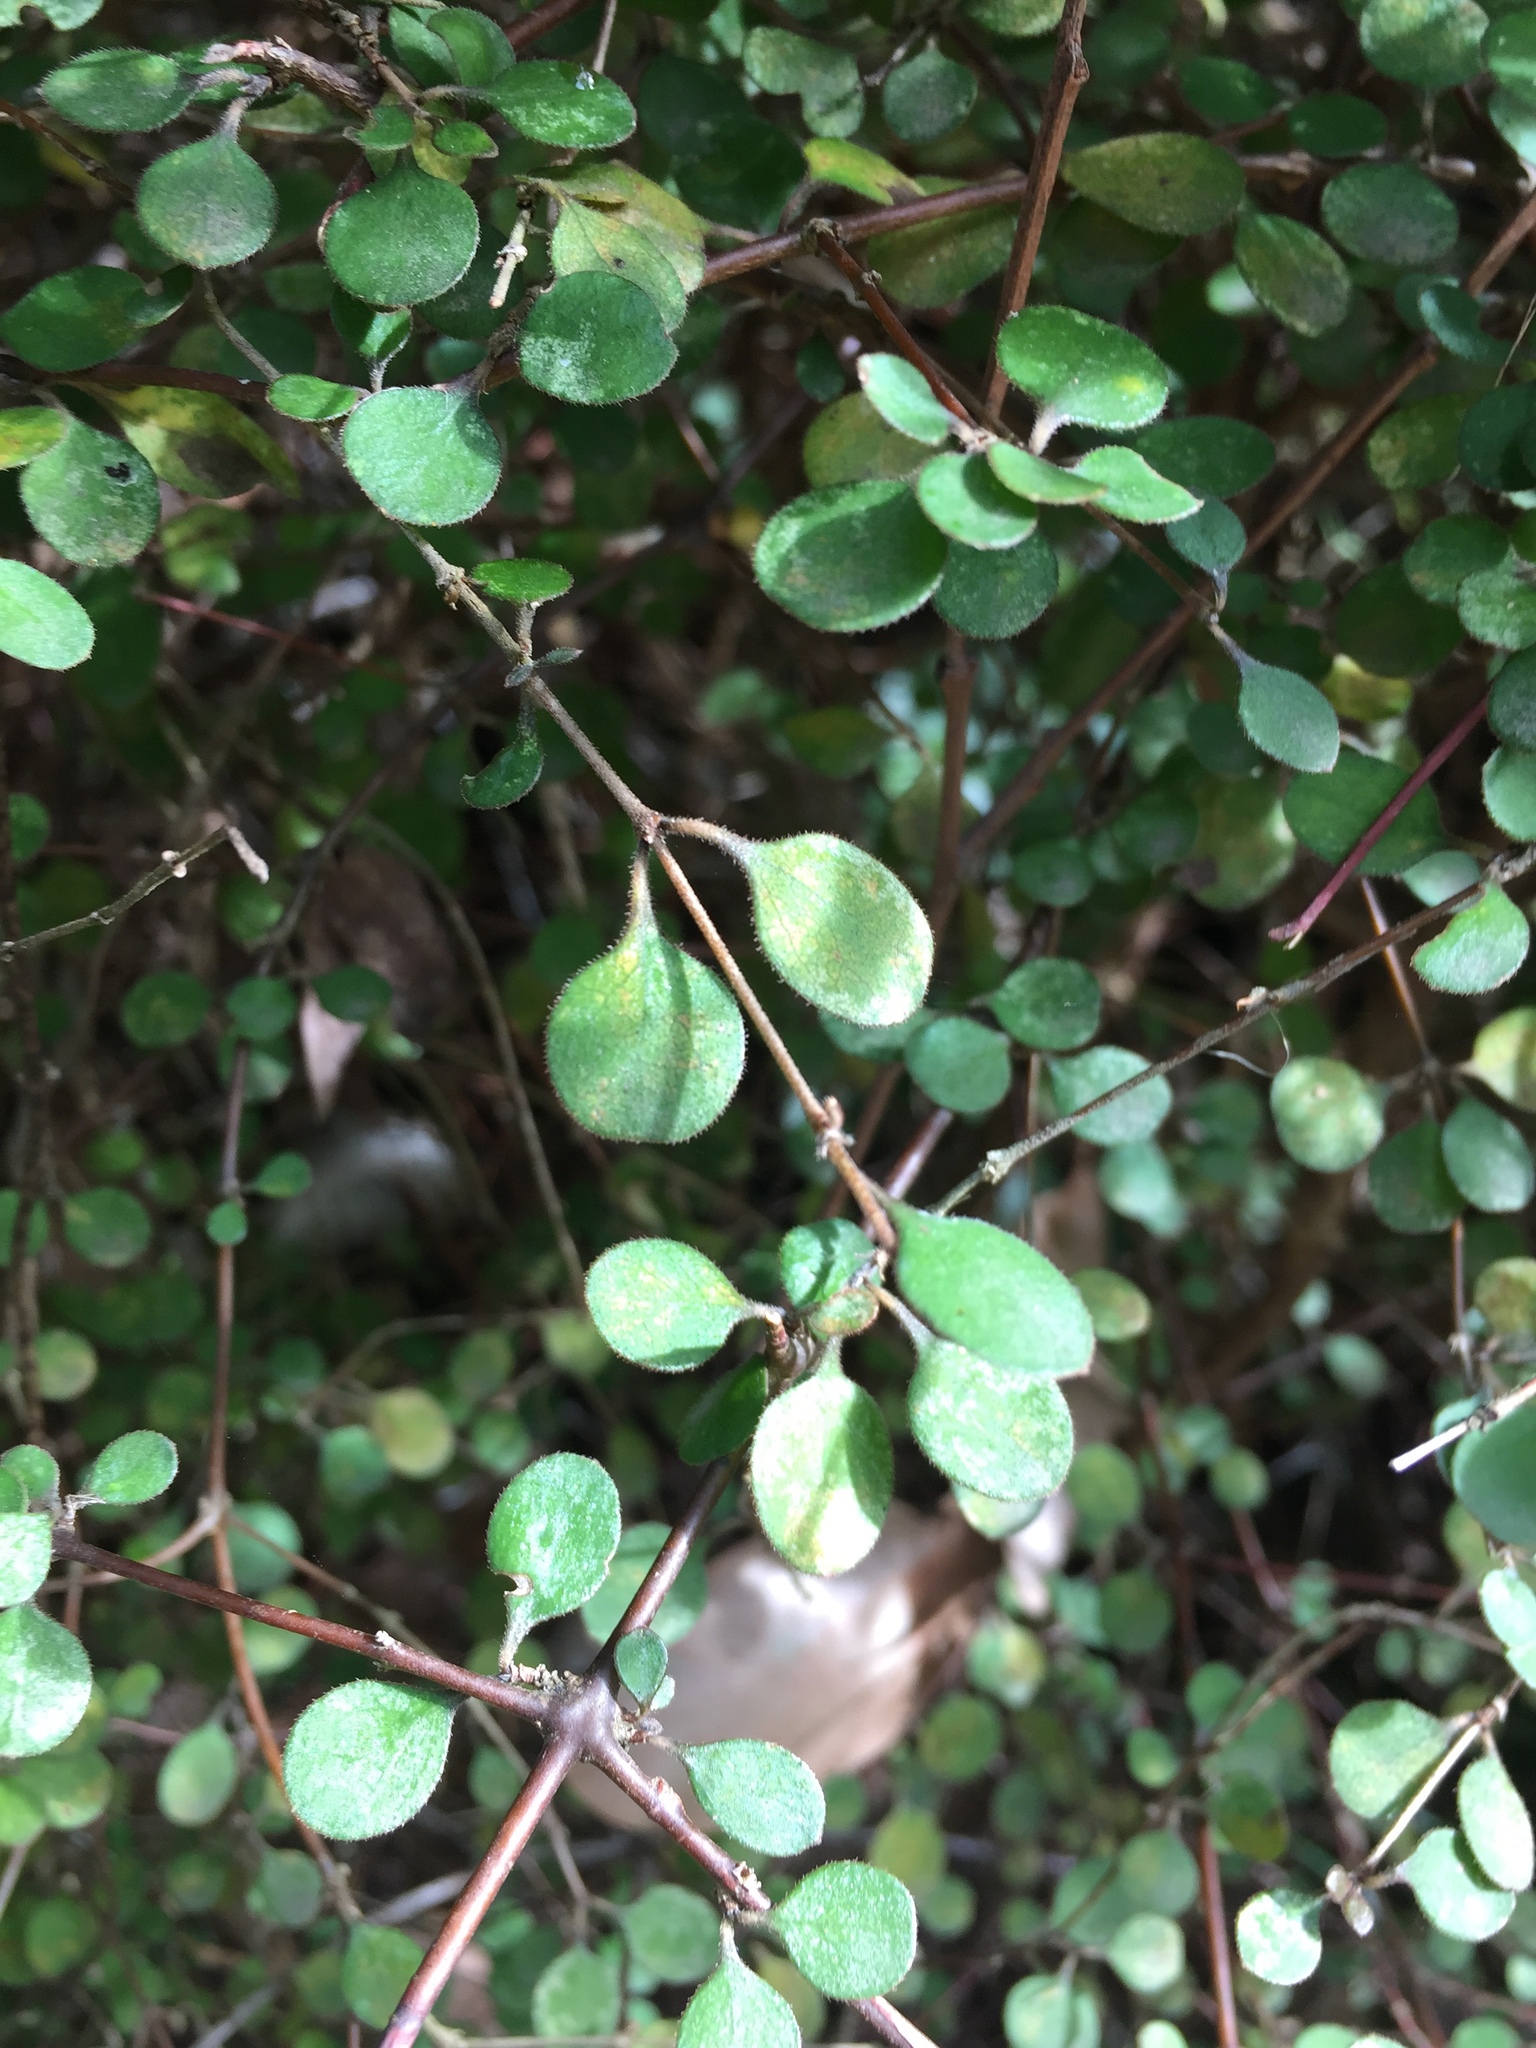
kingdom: Plantae
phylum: Tracheophyta
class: Magnoliopsida
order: Gentianales
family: Rubiaceae
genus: Coprosma
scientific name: Coprosma crassifolia
